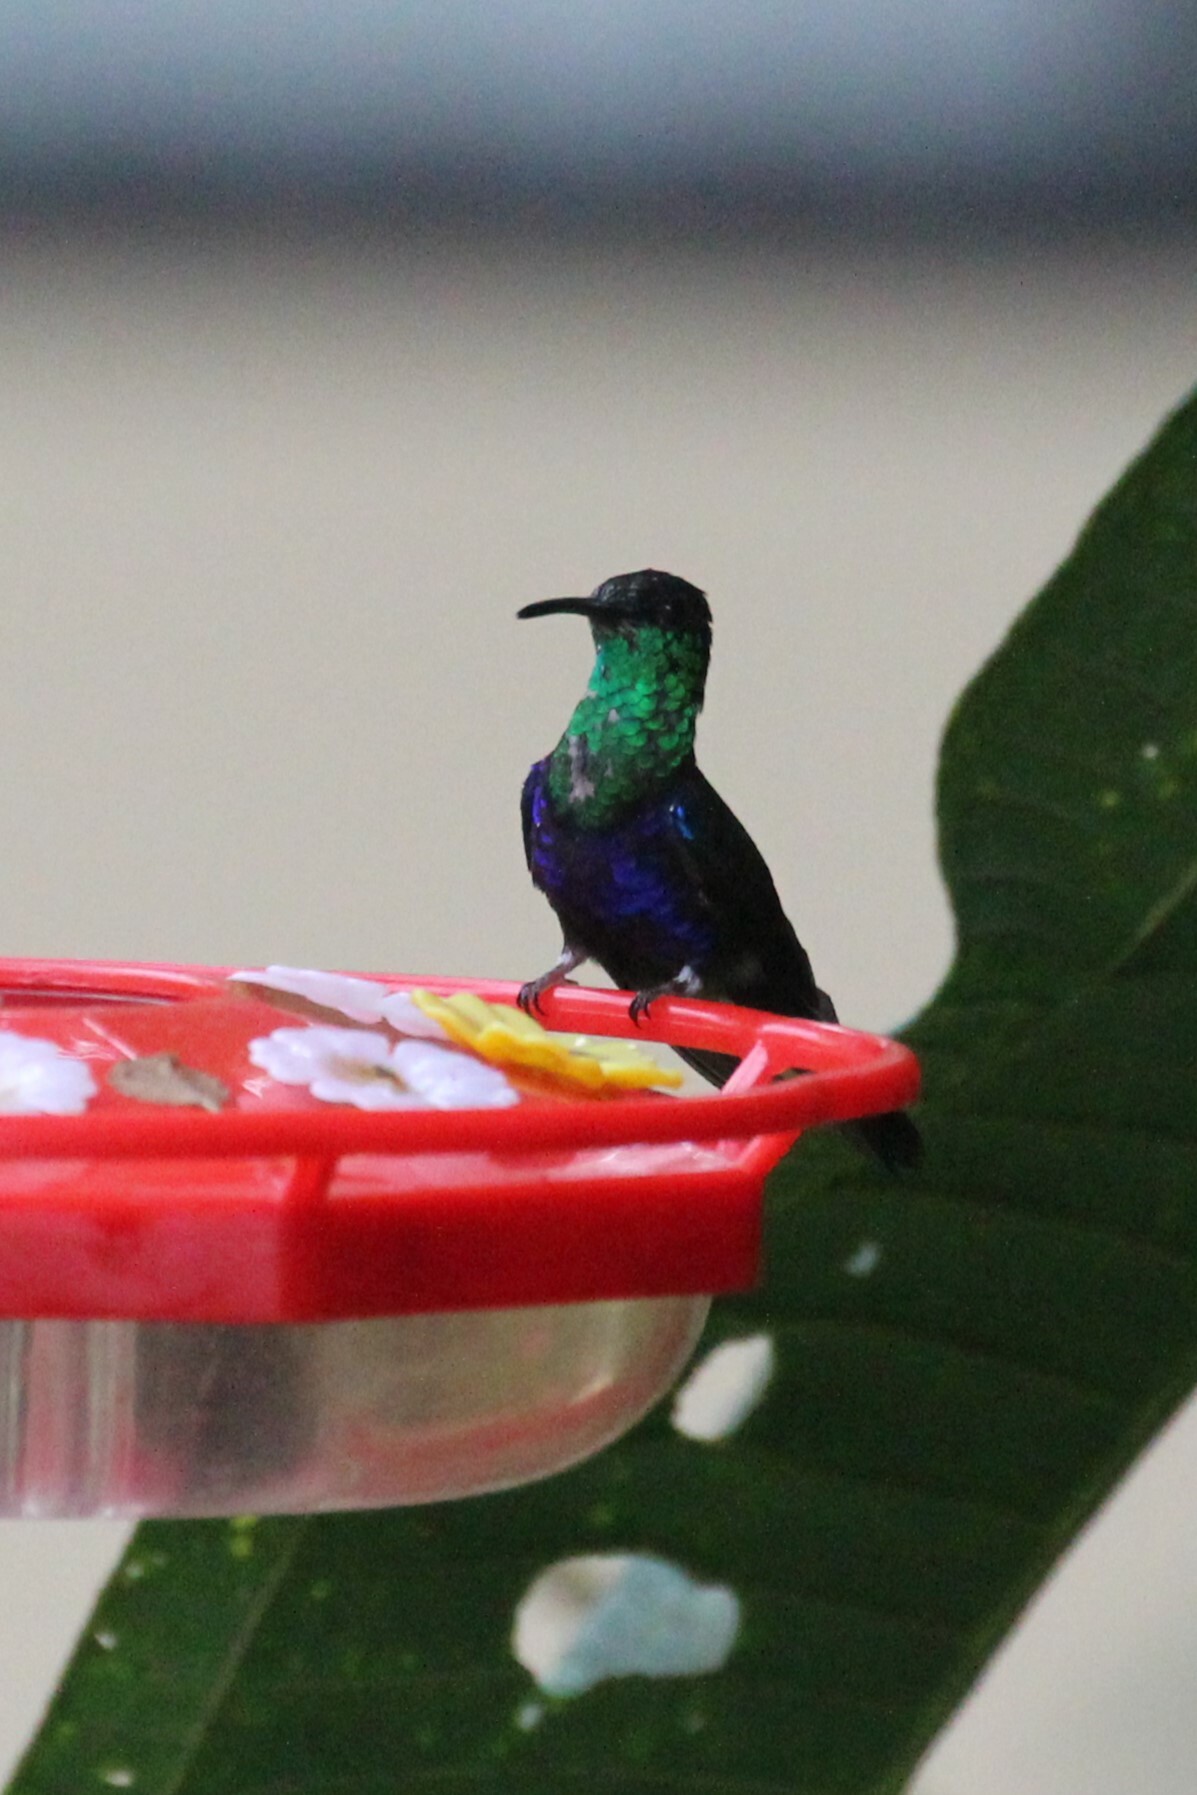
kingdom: Animalia
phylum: Chordata
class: Aves
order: Apodiformes
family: Trochilidae
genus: Thalurania
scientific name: Thalurania furcata
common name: Fork-tailed woodnymph
